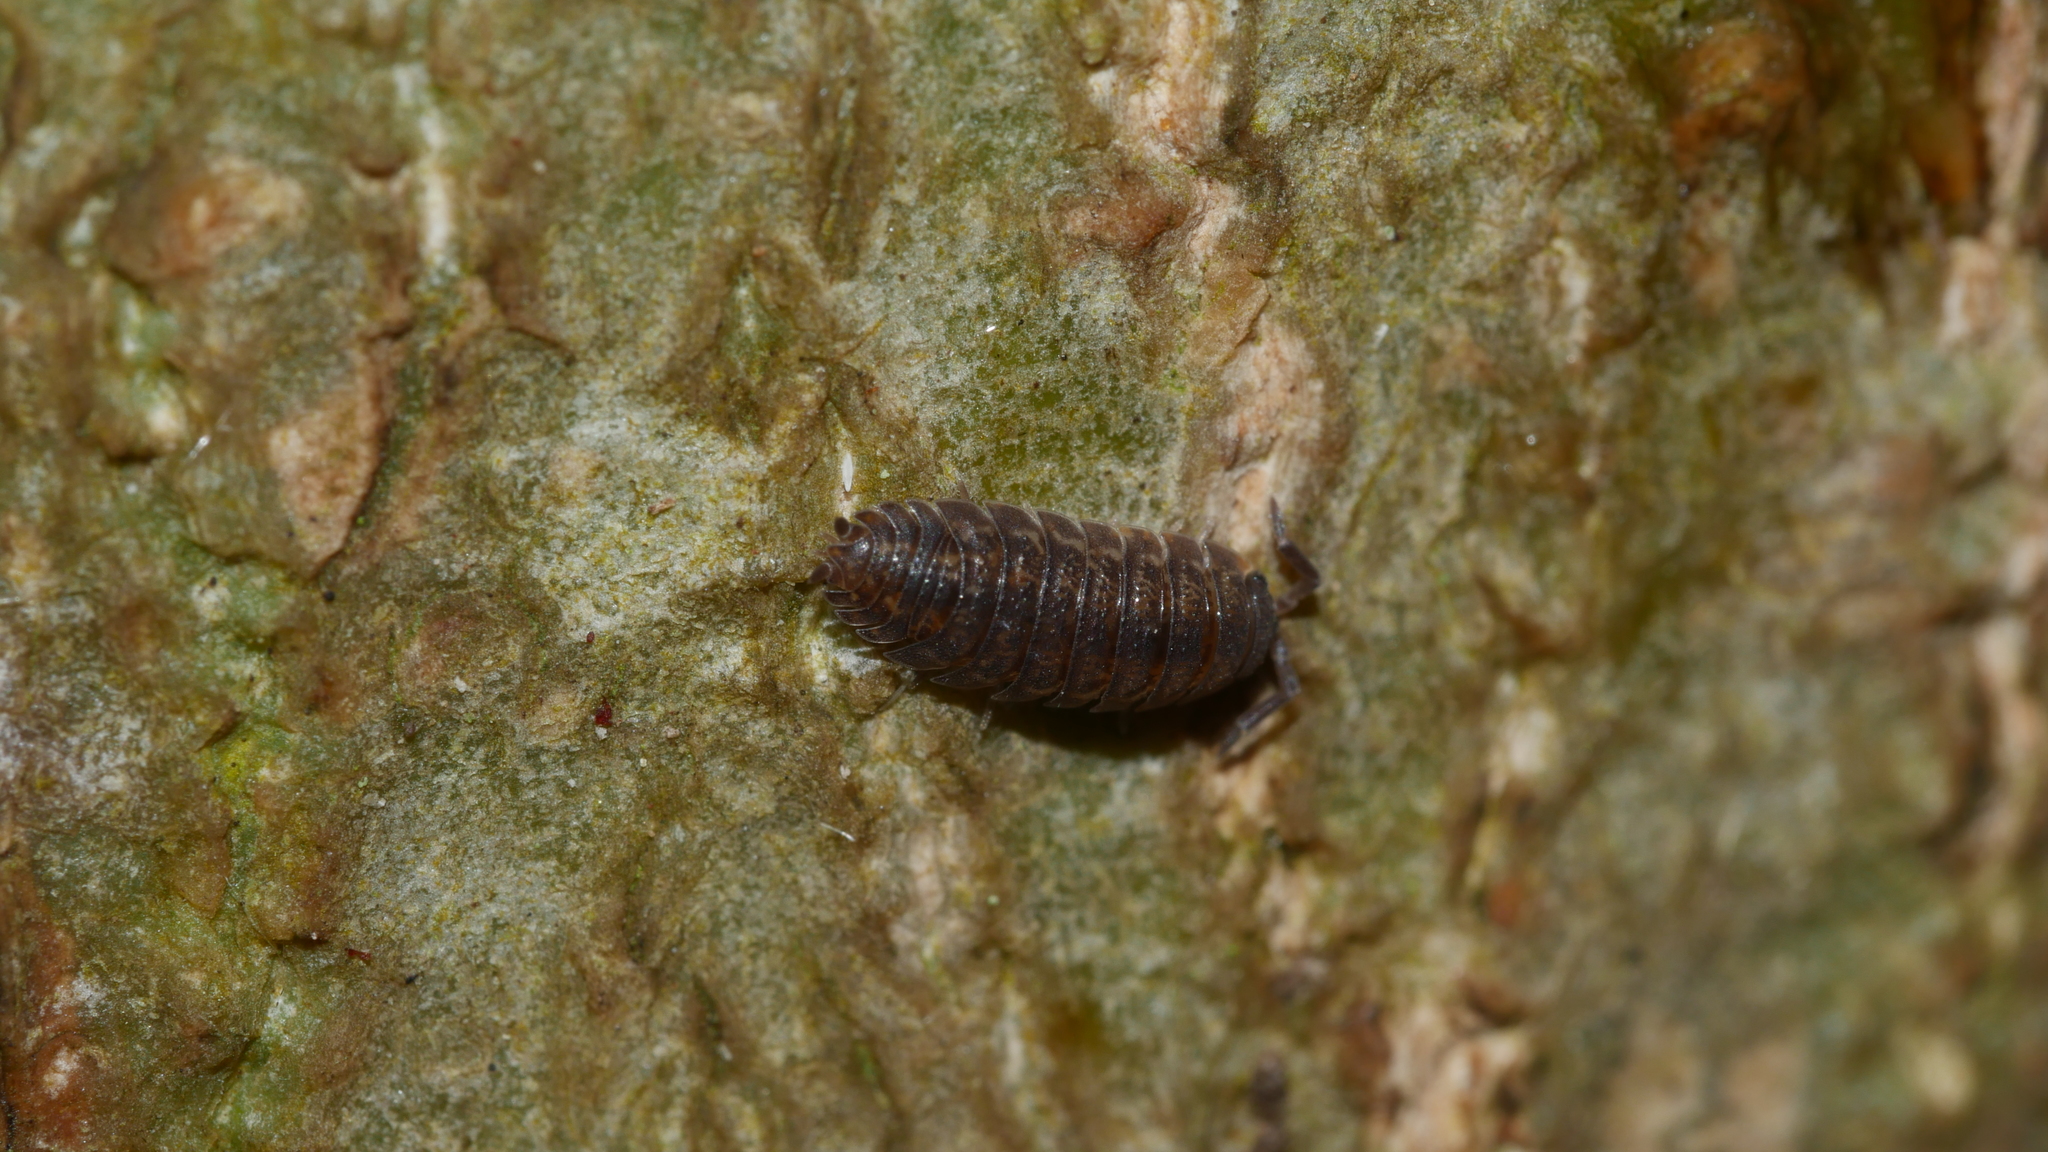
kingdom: Animalia
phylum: Arthropoda
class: Malacostraca
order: Isopoda
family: Porcellionidae
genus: Porcellio
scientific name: Porcellio scaber
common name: Common rough woodlouse
